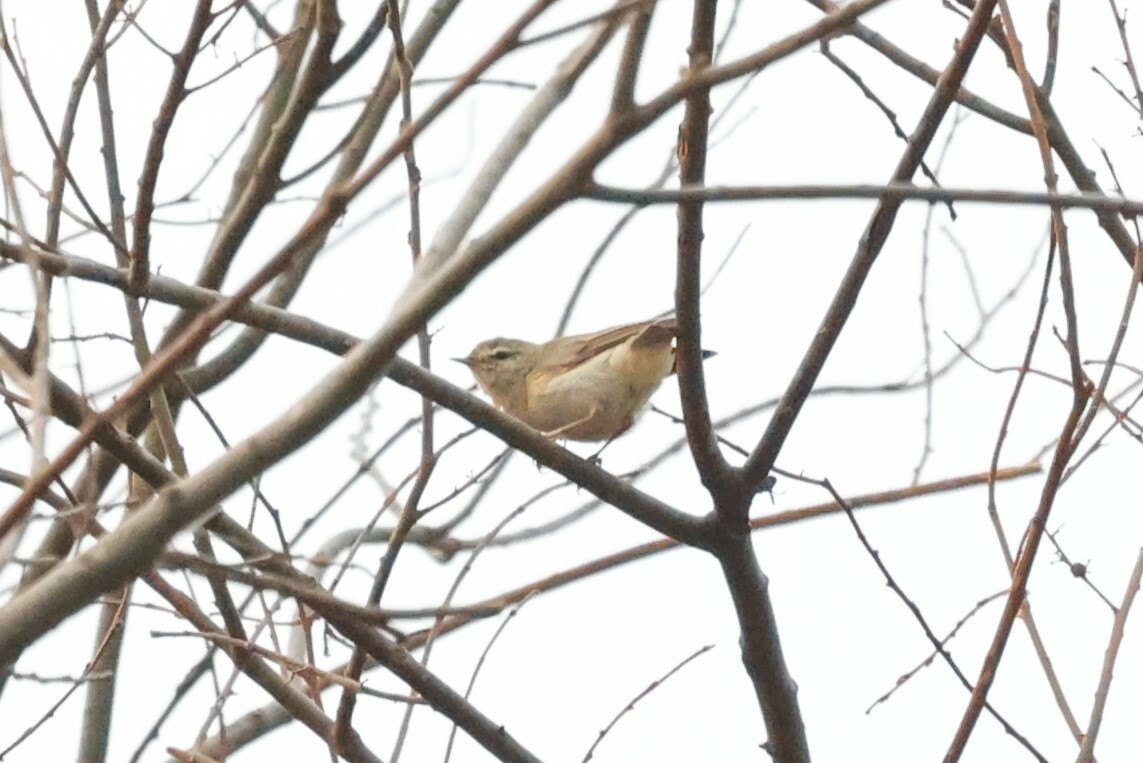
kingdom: Animalia
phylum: Chordata
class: Aves
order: Passeriformes
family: Phylloscopidae
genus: Phylloscopus
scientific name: Phylloscopus trochilus
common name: Willow warbler
